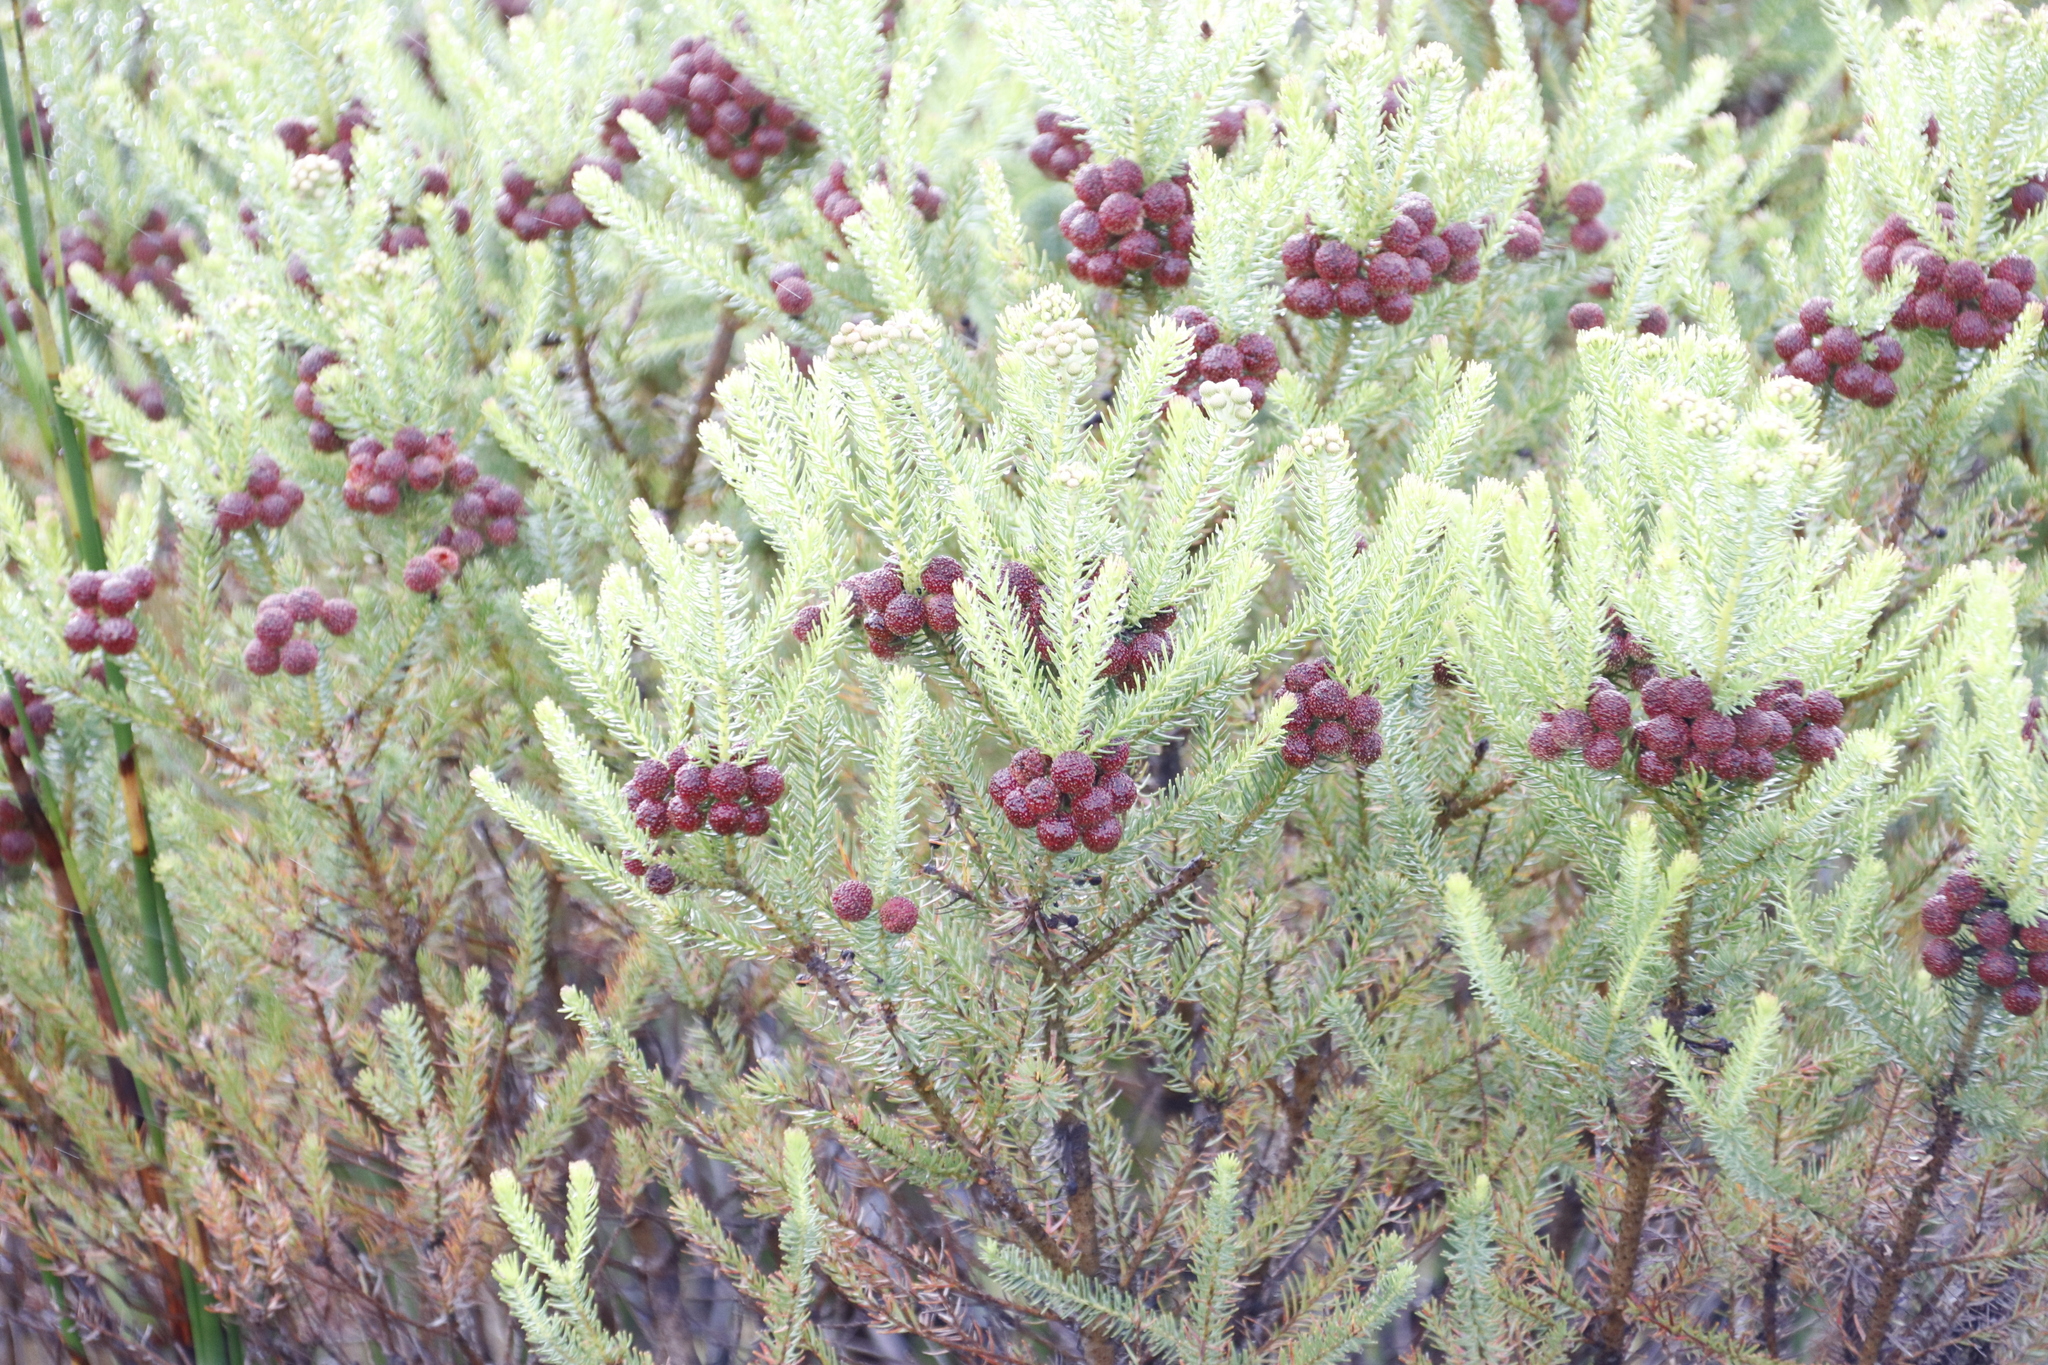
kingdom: Plantae
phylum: Tracheophyta
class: Magnoliopsida
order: Bruniales
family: Bruniaceae
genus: Berzelia
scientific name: Berzelia squarrosa
